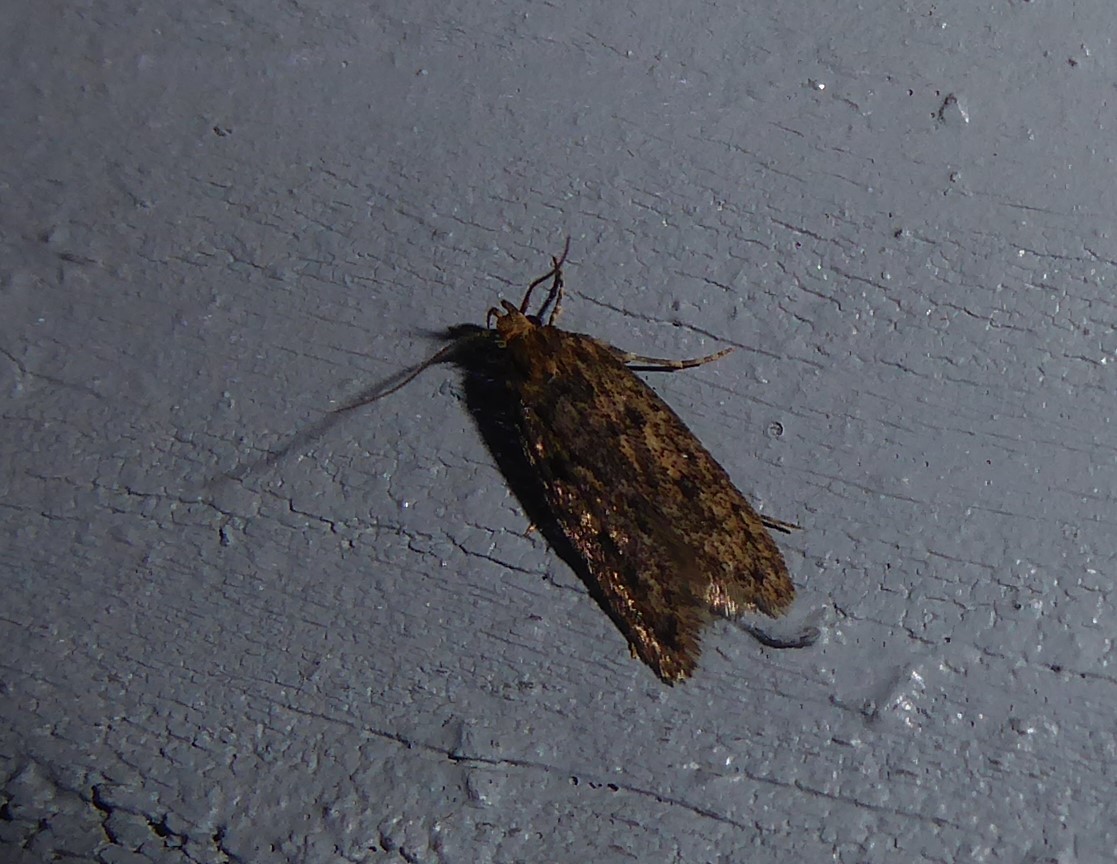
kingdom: Animalia
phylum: Arthropoda
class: Insecta
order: Lepidoptera
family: Oecophoridae
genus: Hofmannophila
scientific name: Hofmannophila pseudospretella
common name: Brown house moth
